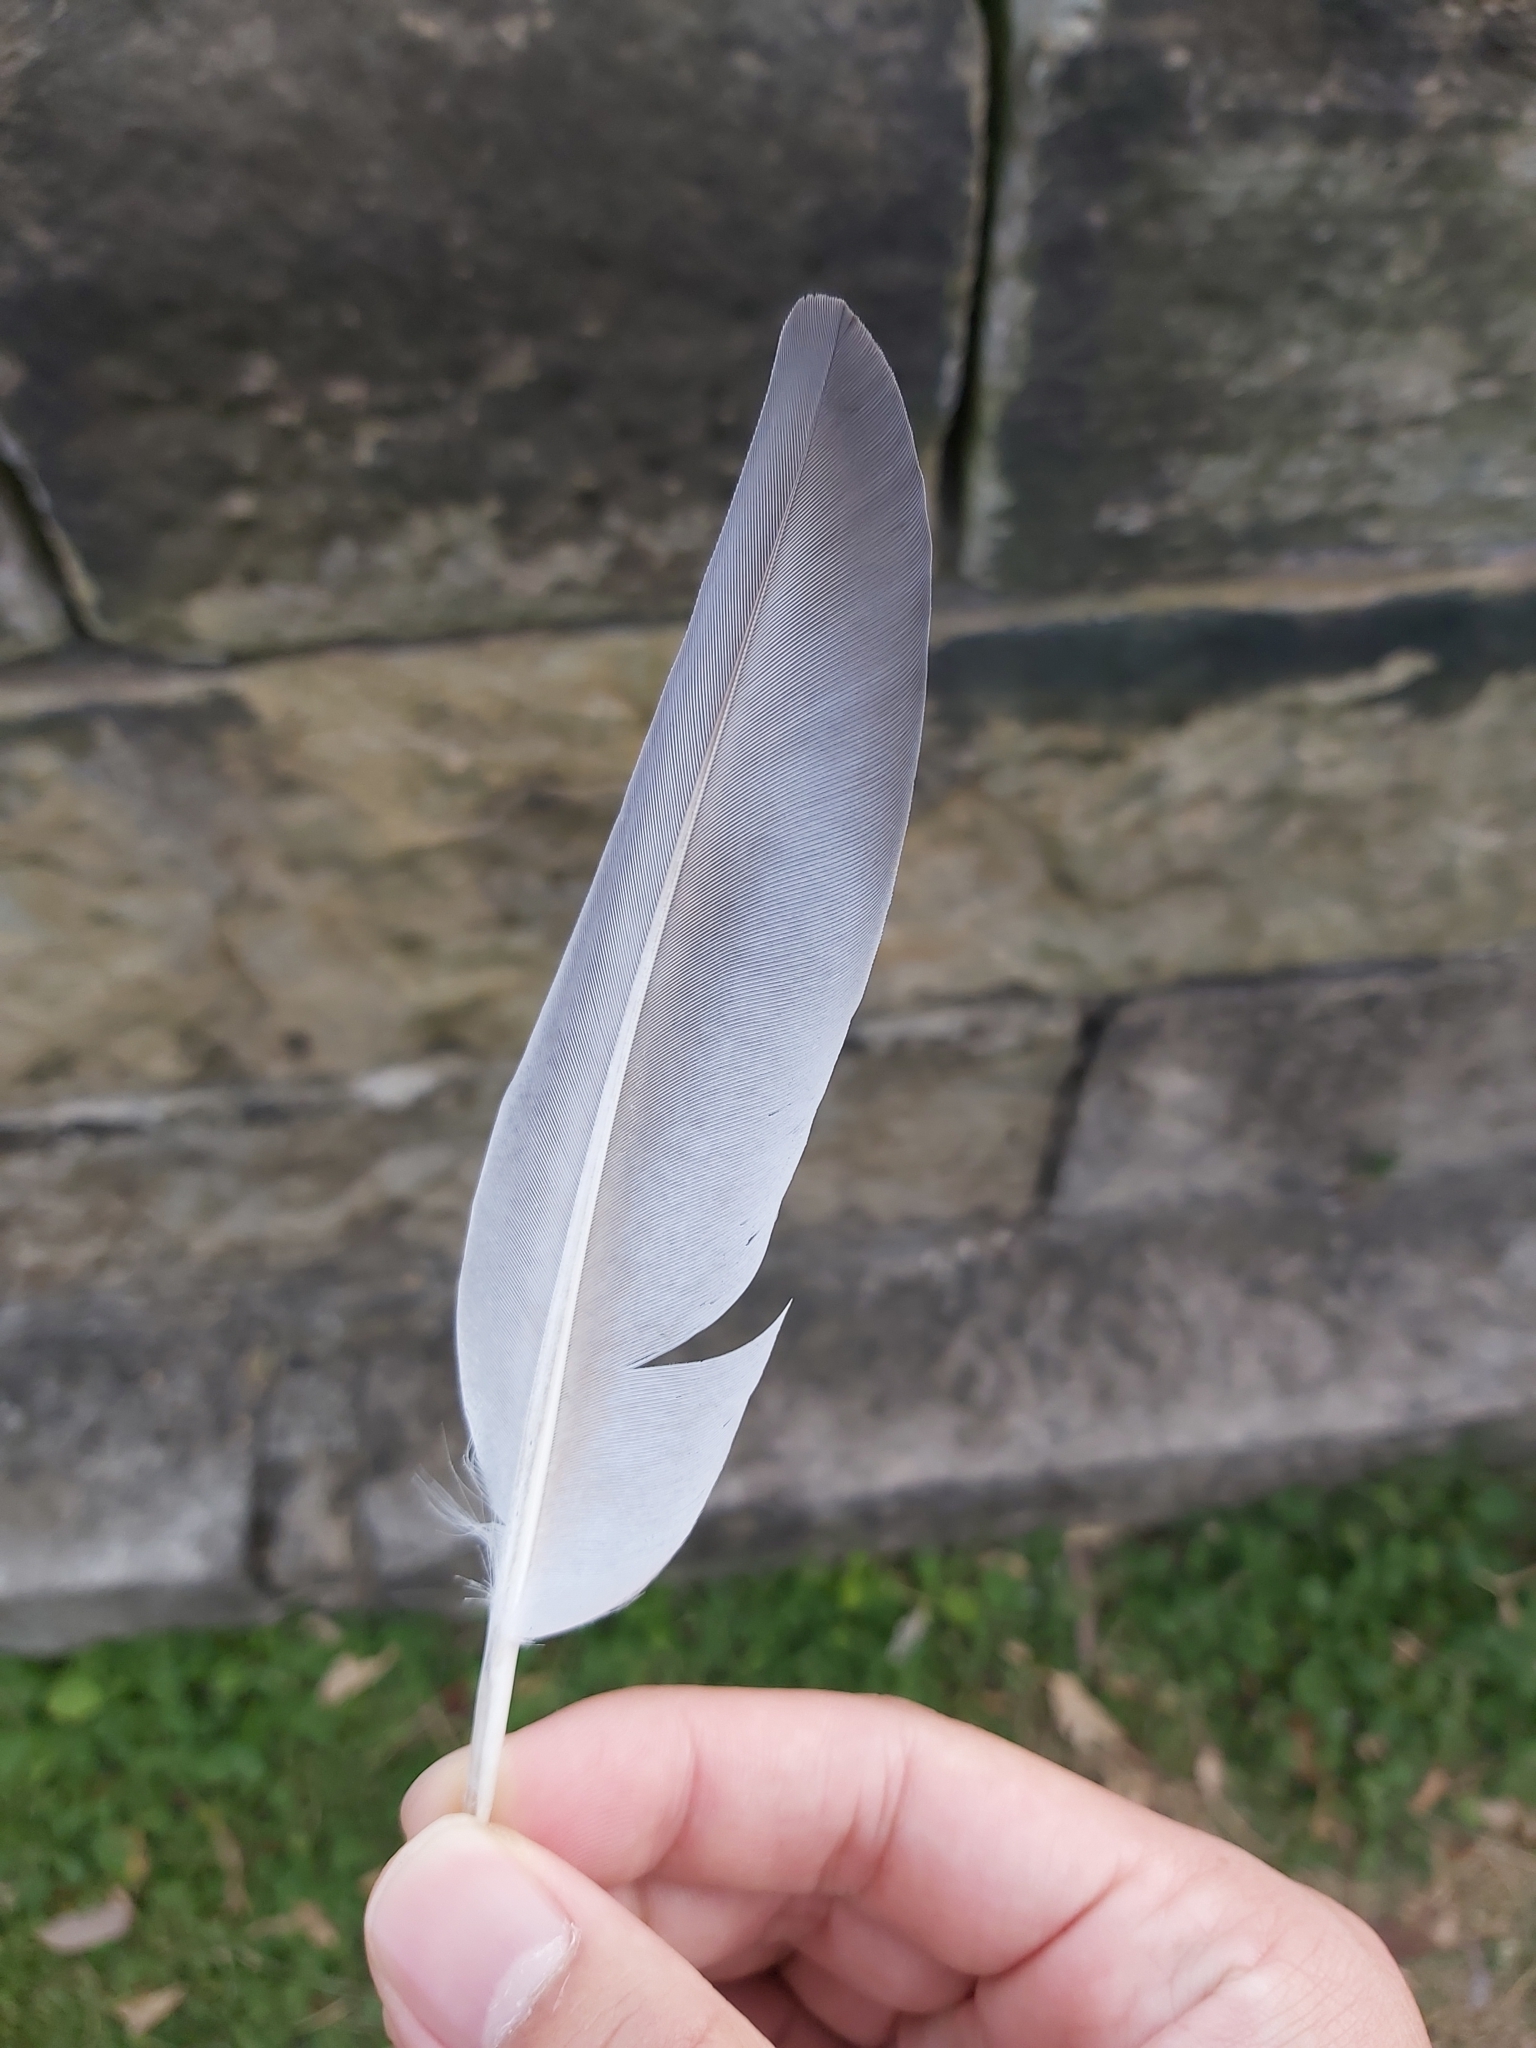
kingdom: Animalia
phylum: Chordata
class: Aves
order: Columbiformes
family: Columbidae
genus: Columba
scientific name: Columba livia
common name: Rock pigeon
